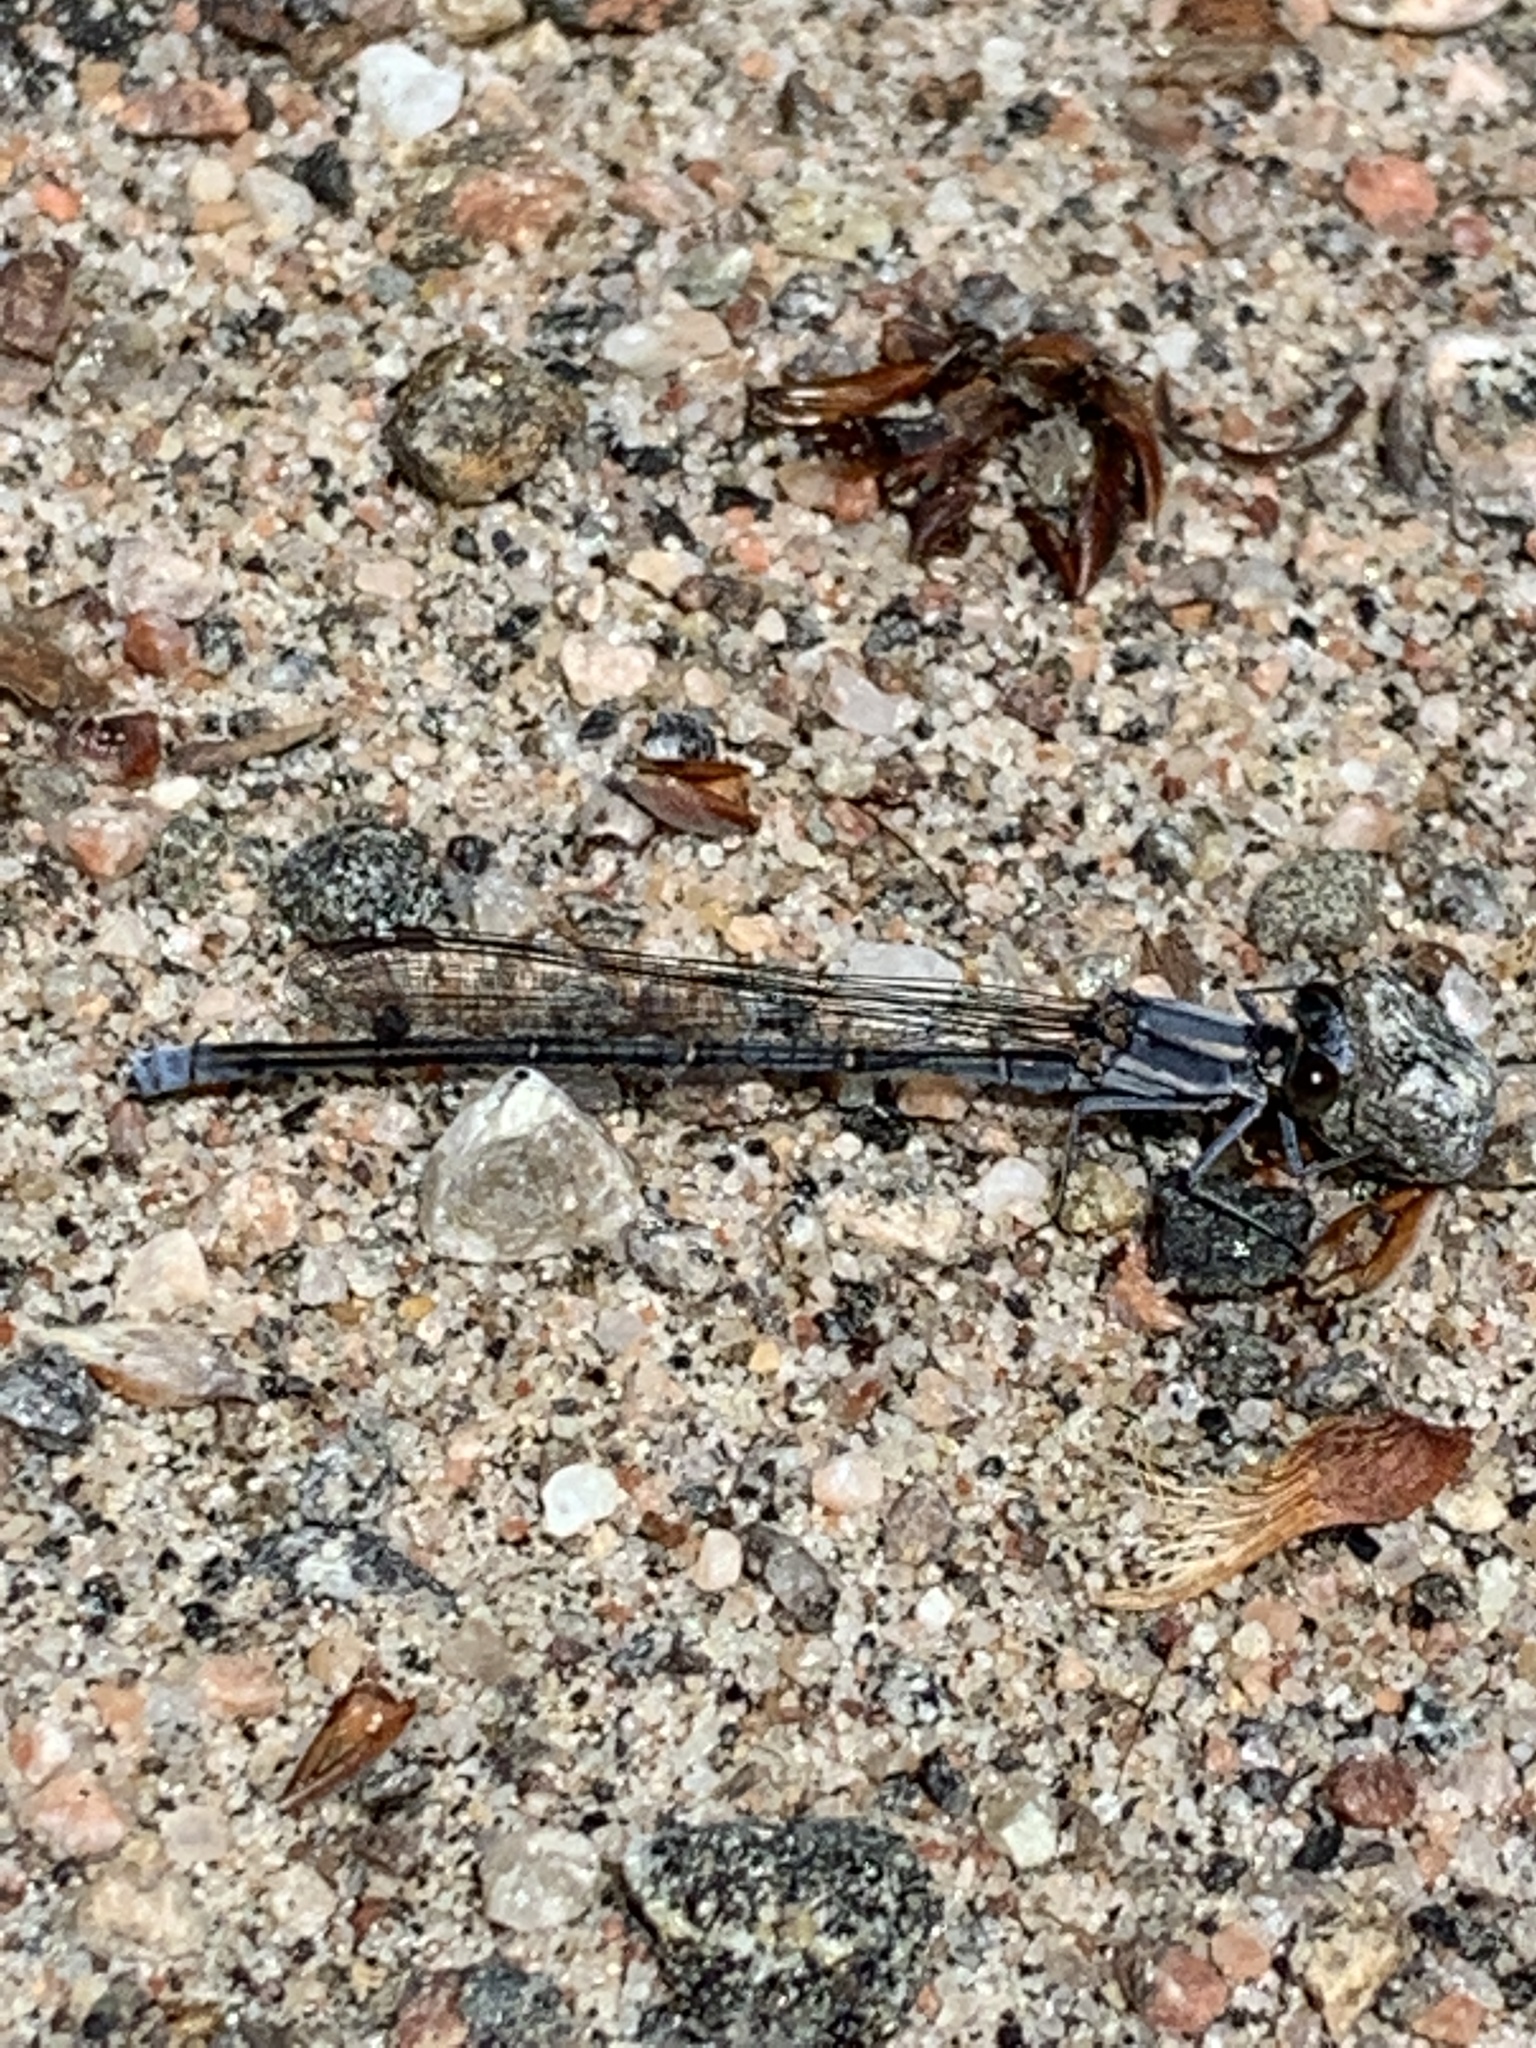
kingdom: Animalia
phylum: Arthropoda
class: Insecta
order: Odonata
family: Coenagrionidae
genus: Argia
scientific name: Argia moesta
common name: Powdered dancer
